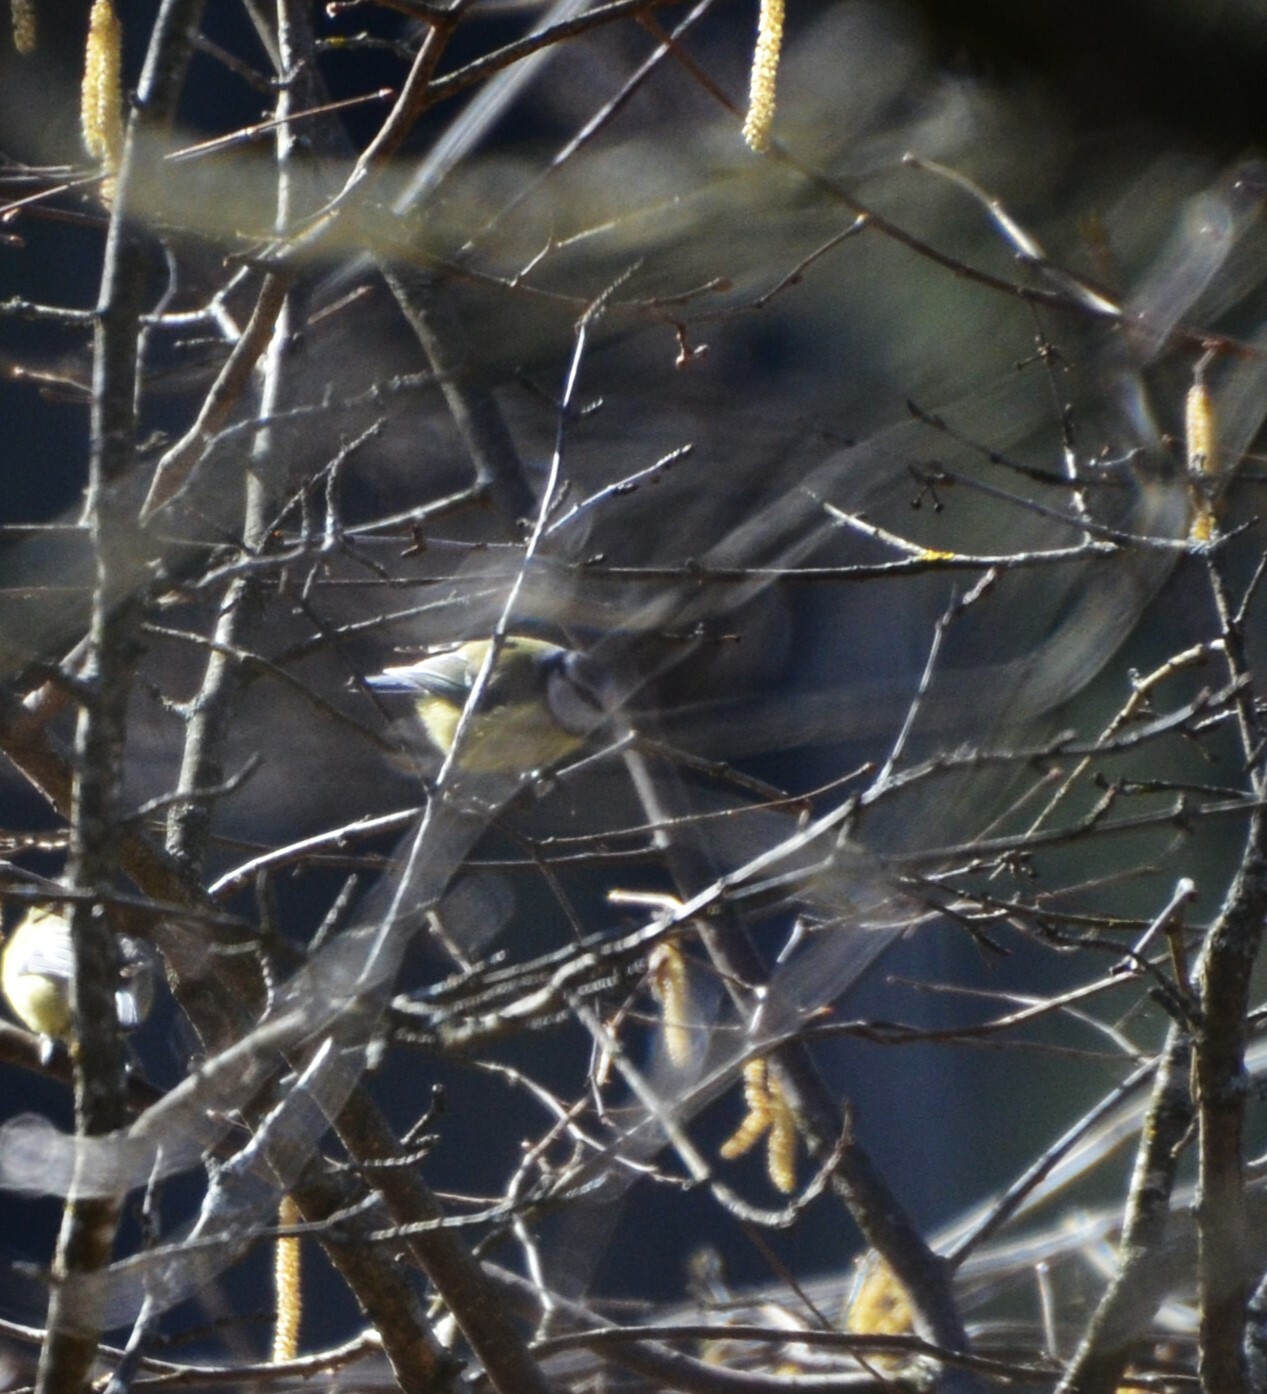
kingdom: Animalia
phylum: Chordata
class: Aves
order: Passeriformes
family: Paridae
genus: Cyanistes
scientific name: Cyanistes caeruleus
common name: Eurasian blue tit
